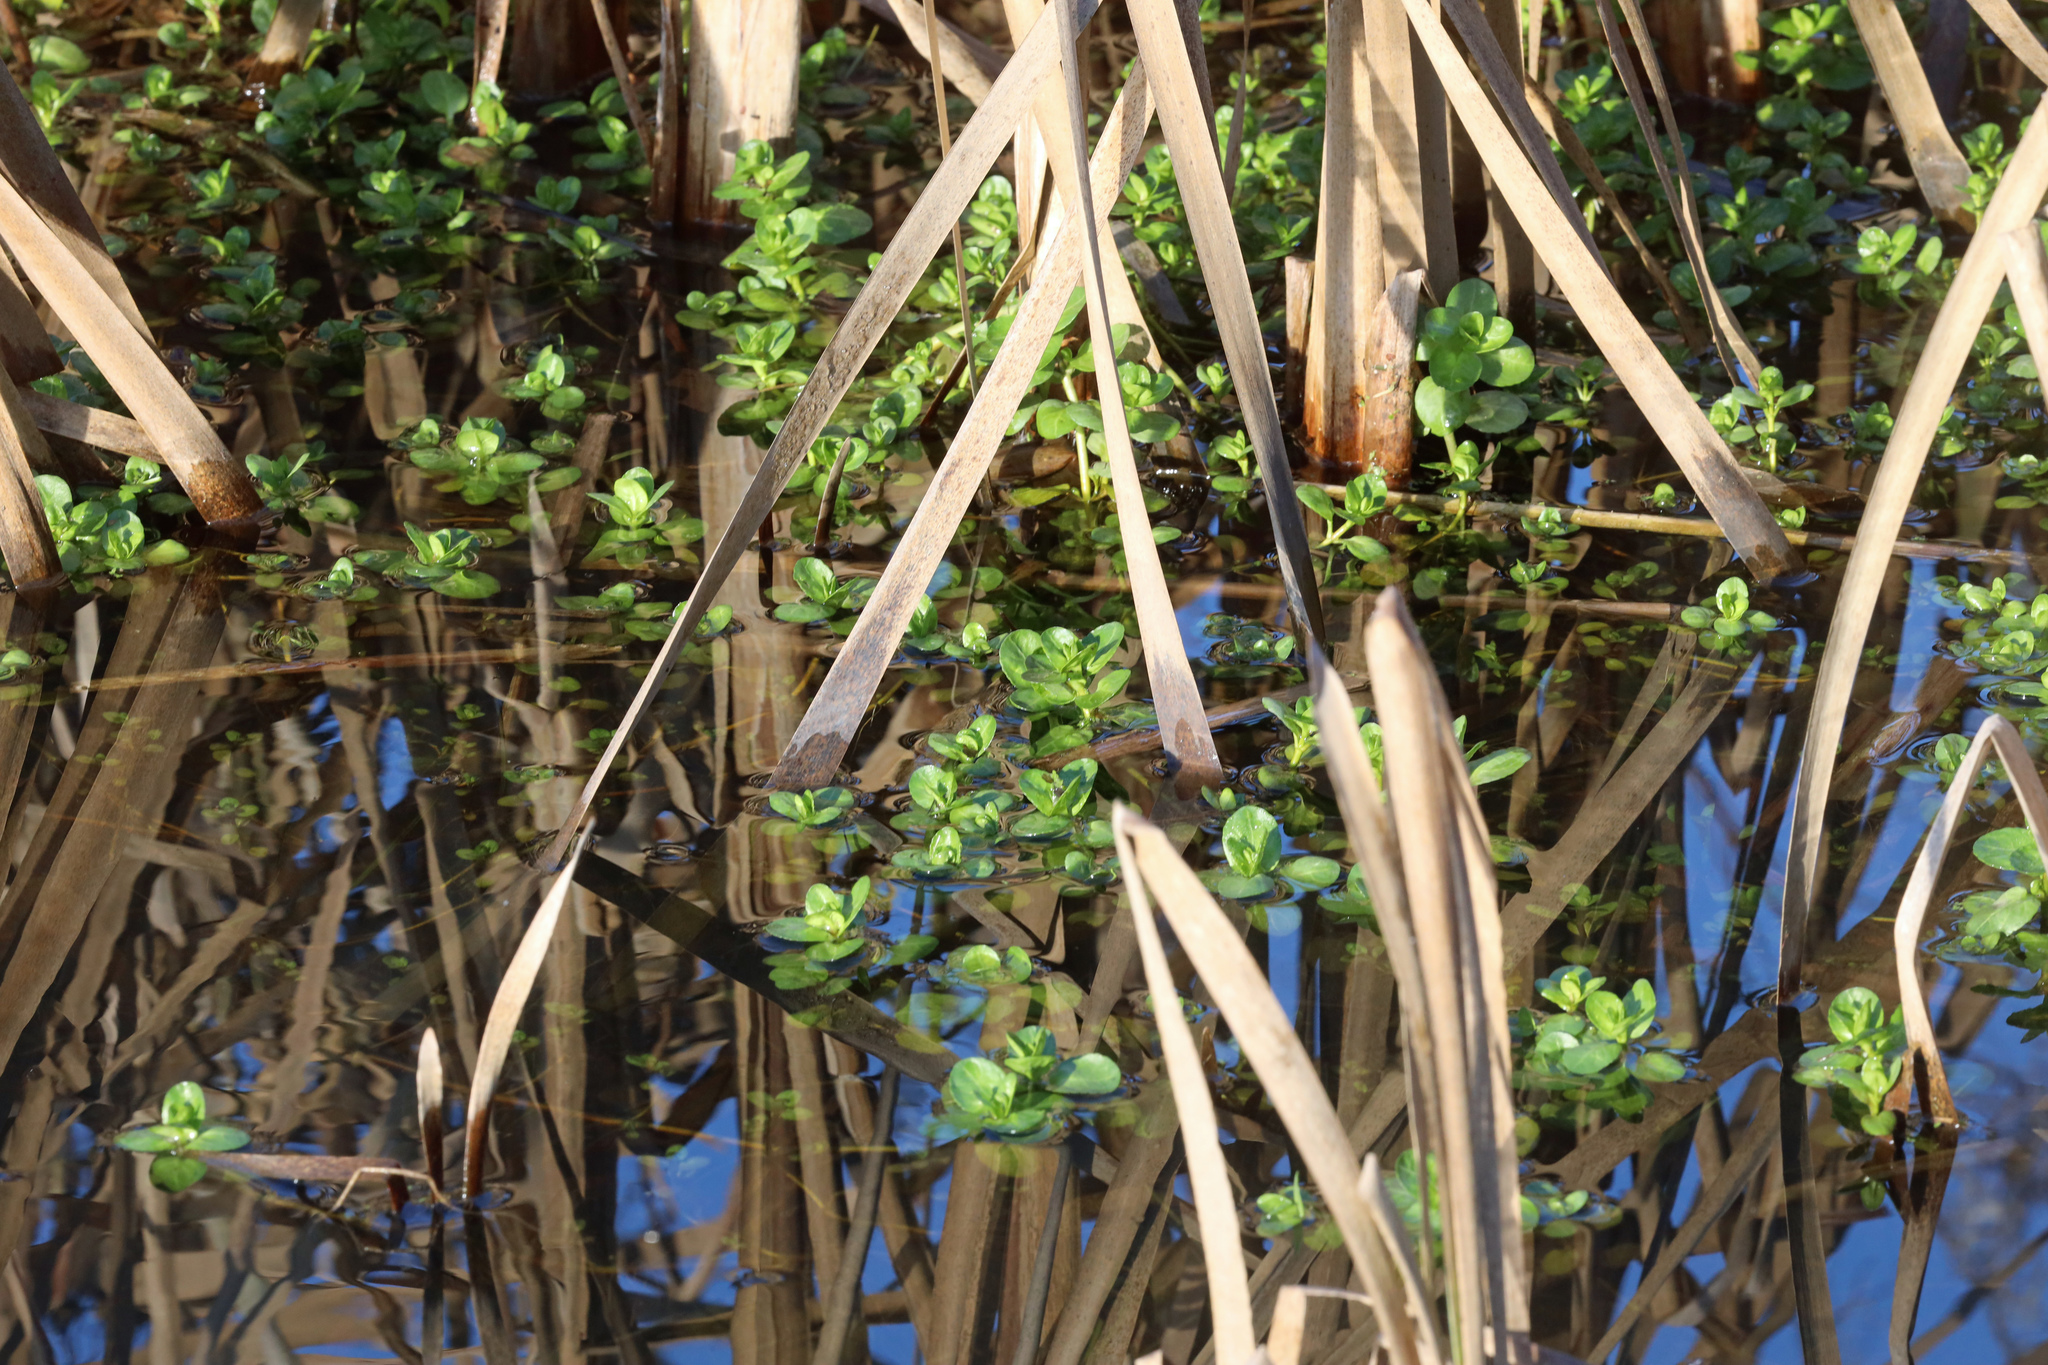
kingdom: Plantae
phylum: Tracheophyta
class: Magnoliopsida
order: Lamiales
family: Plantaginaceae
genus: Veronica
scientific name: Veronica beccabunga
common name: Brooklime
